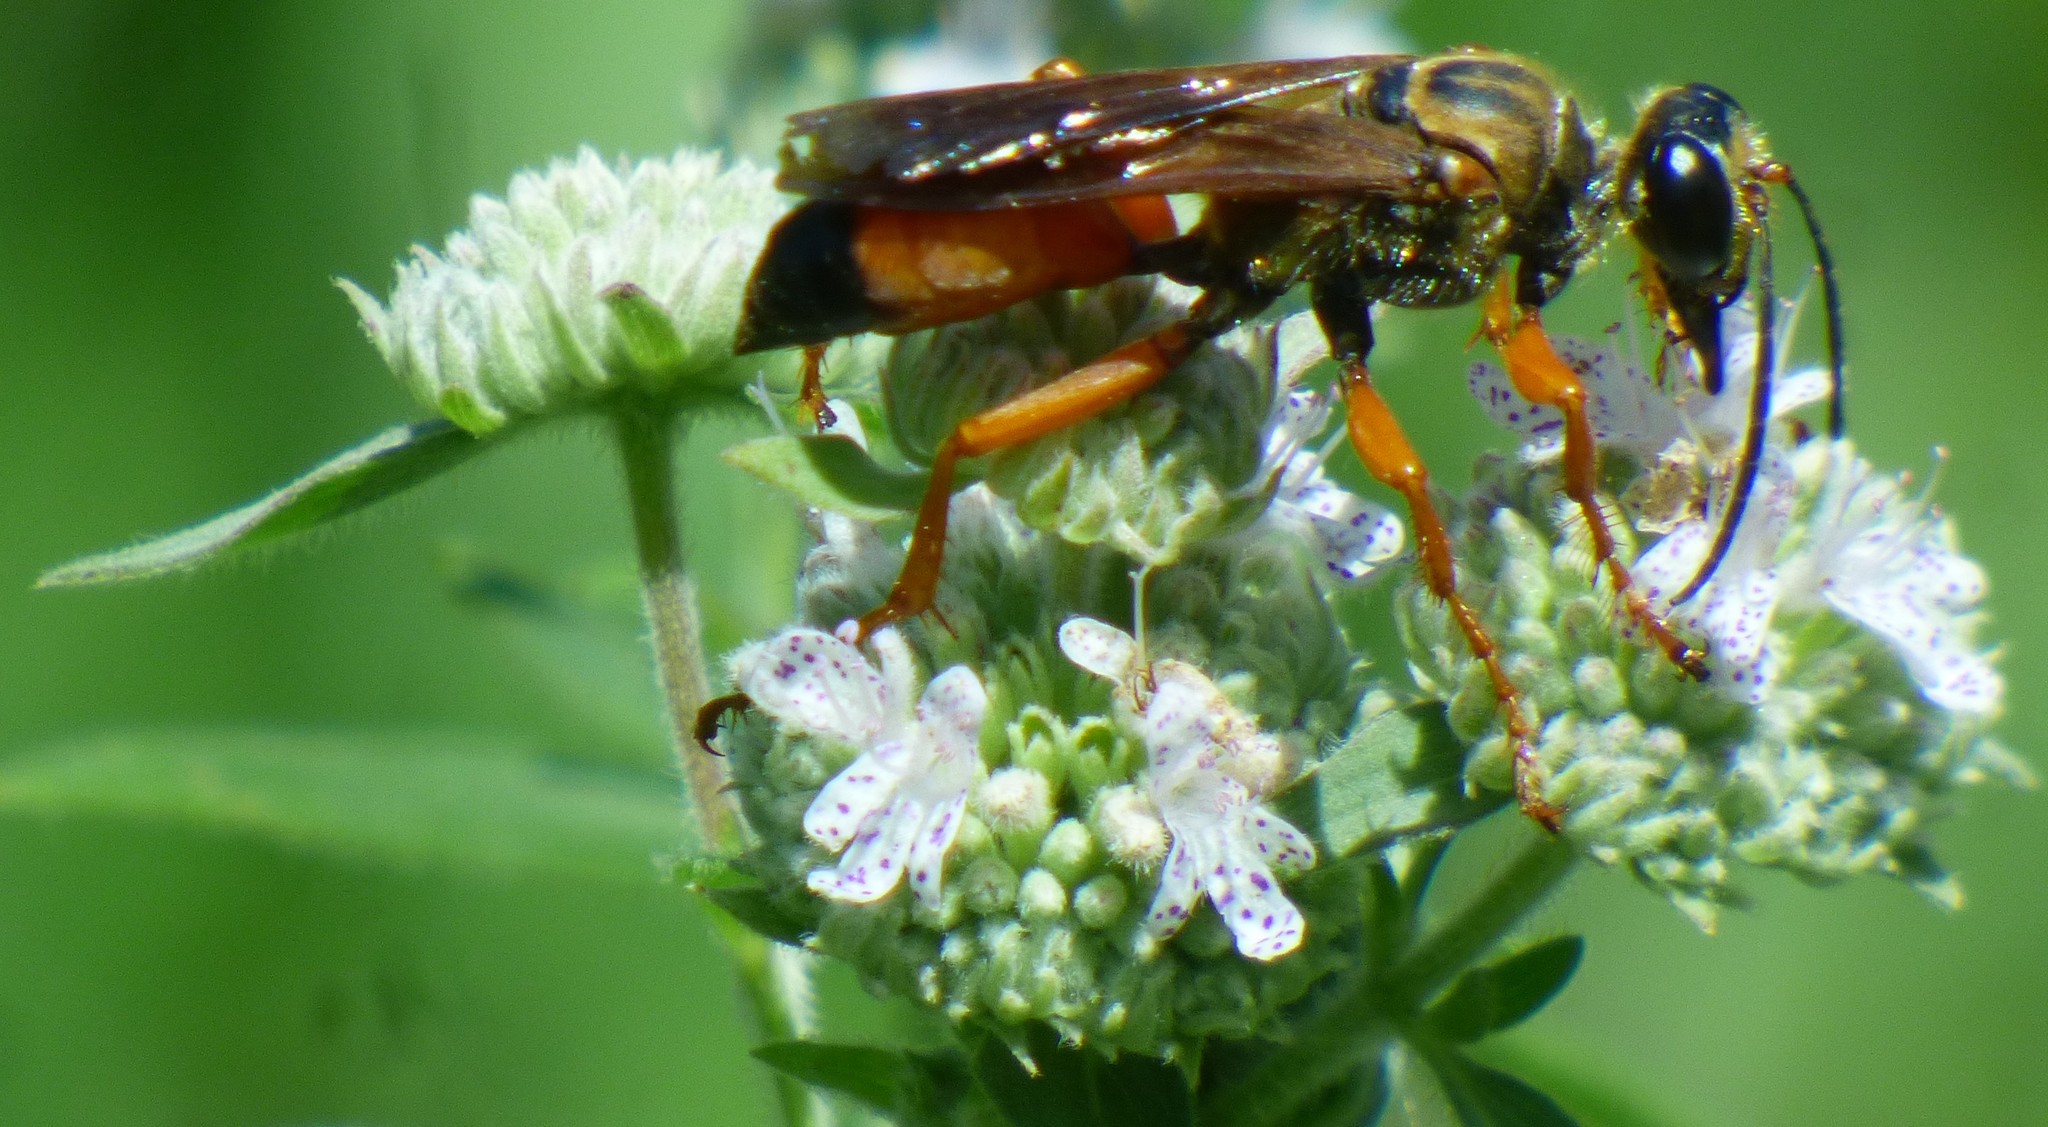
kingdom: Animalia
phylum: Arthropoda
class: Insecta
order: Hymenoptera
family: Sphecidae
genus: Sphex
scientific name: Sphex ichneumoneus
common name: Great golden digger wasp
